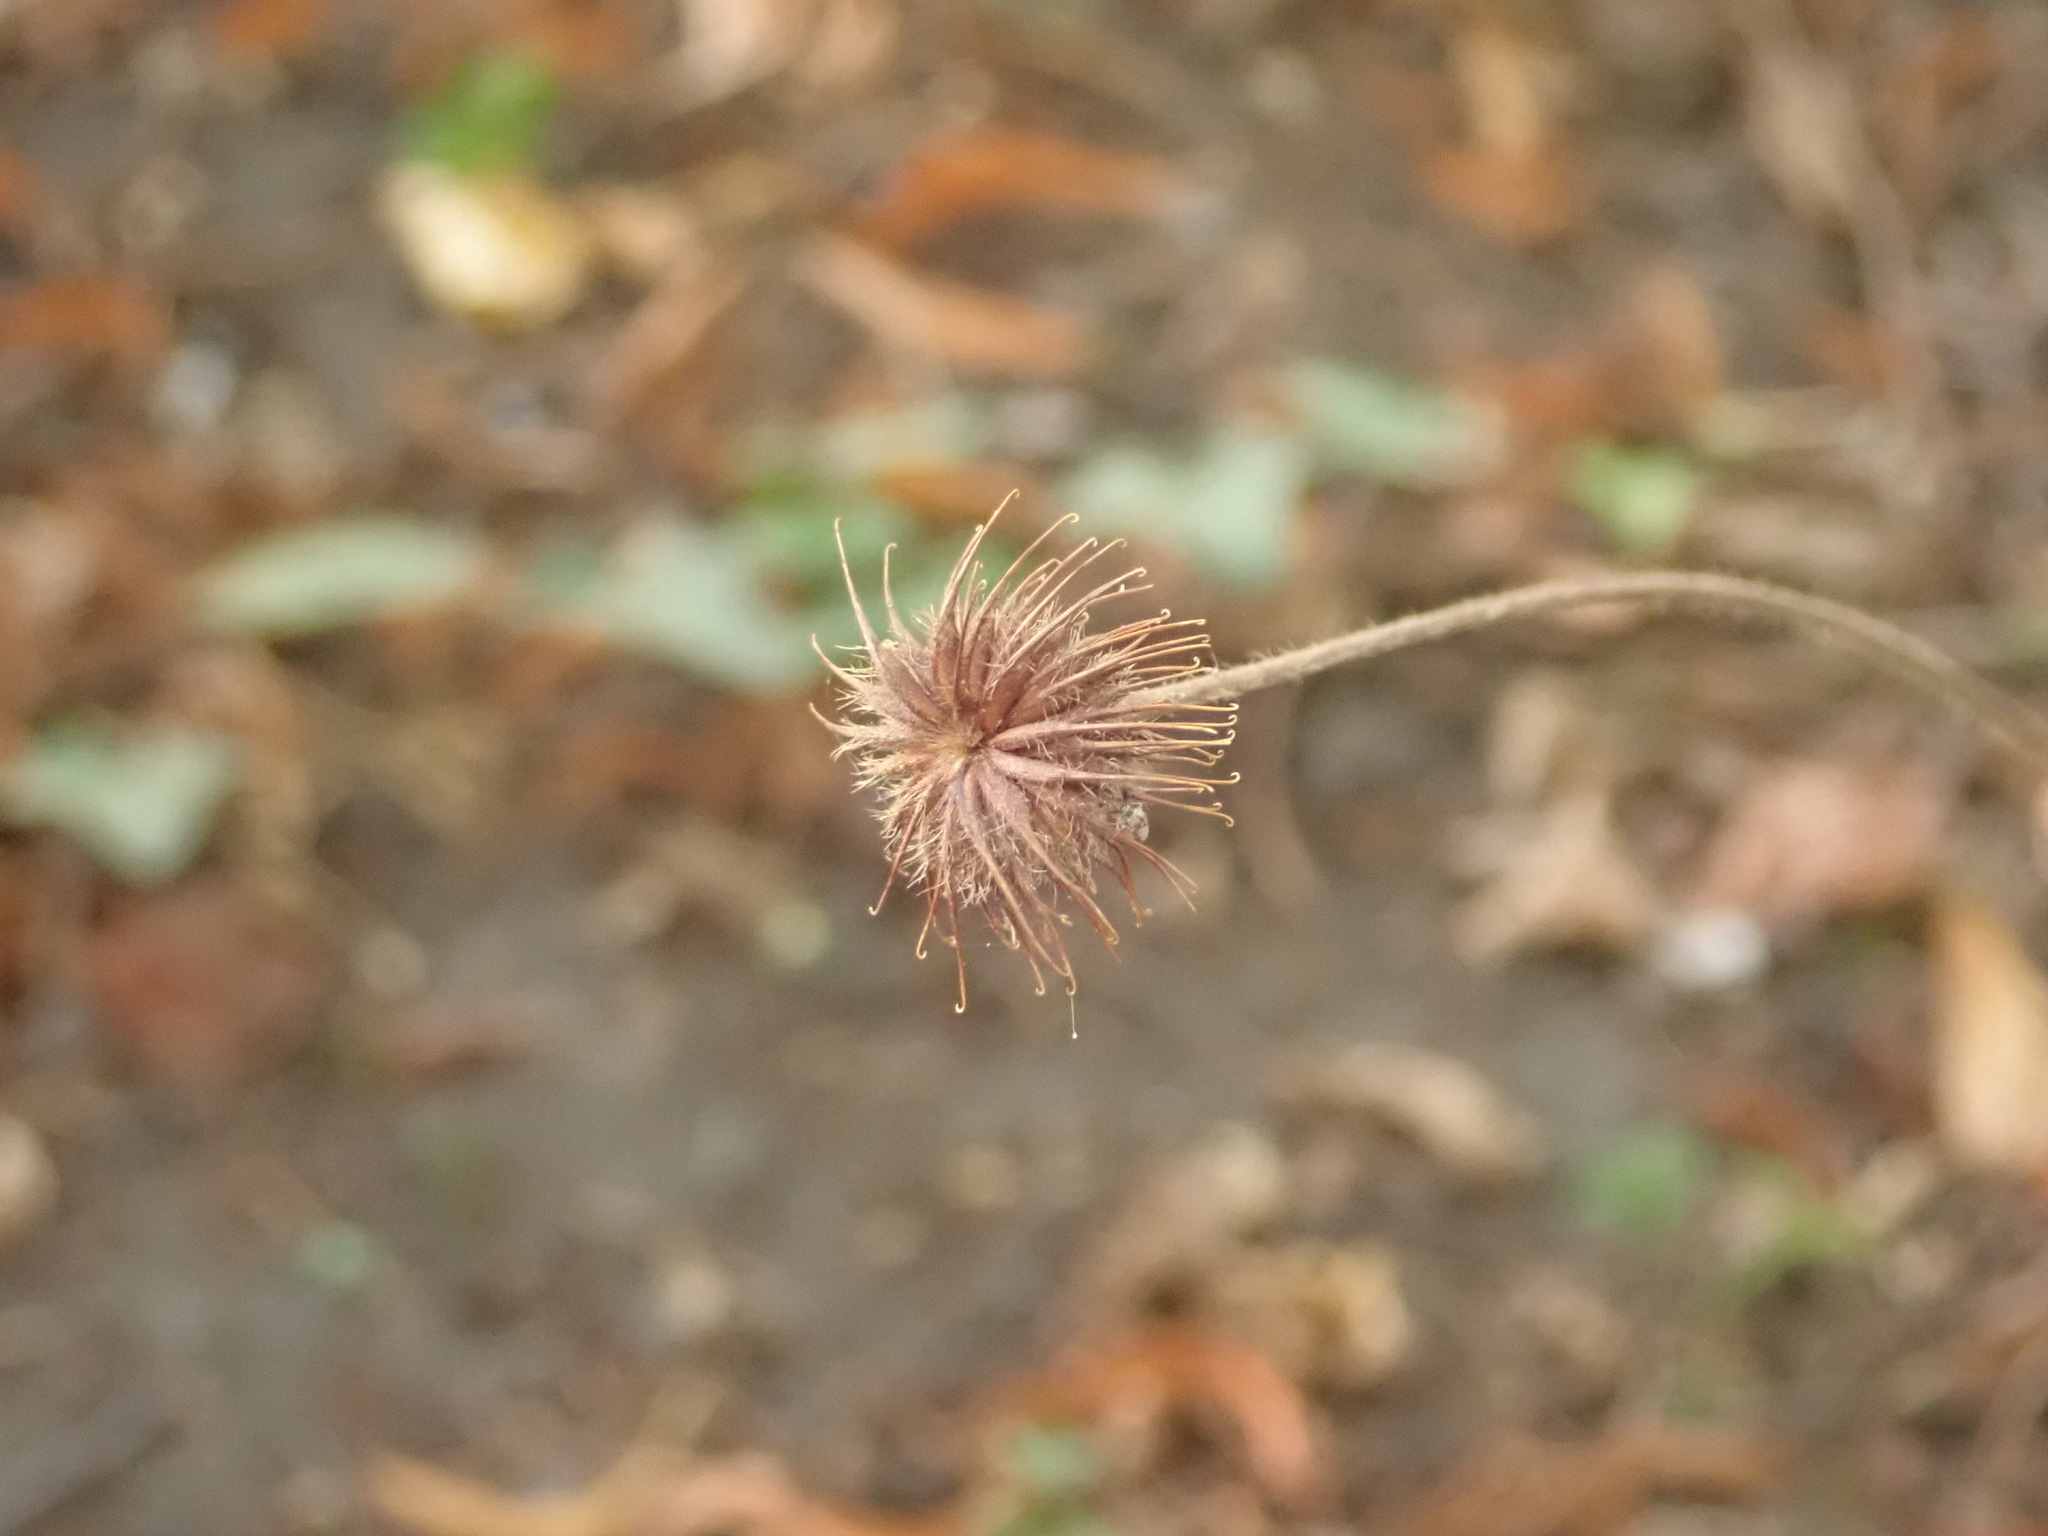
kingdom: Plantae
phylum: Tracheophyta
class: Magnoliopsida
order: Rosales
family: Rosaceae
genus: Geum
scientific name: Geum urbanum
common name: Wood avens
